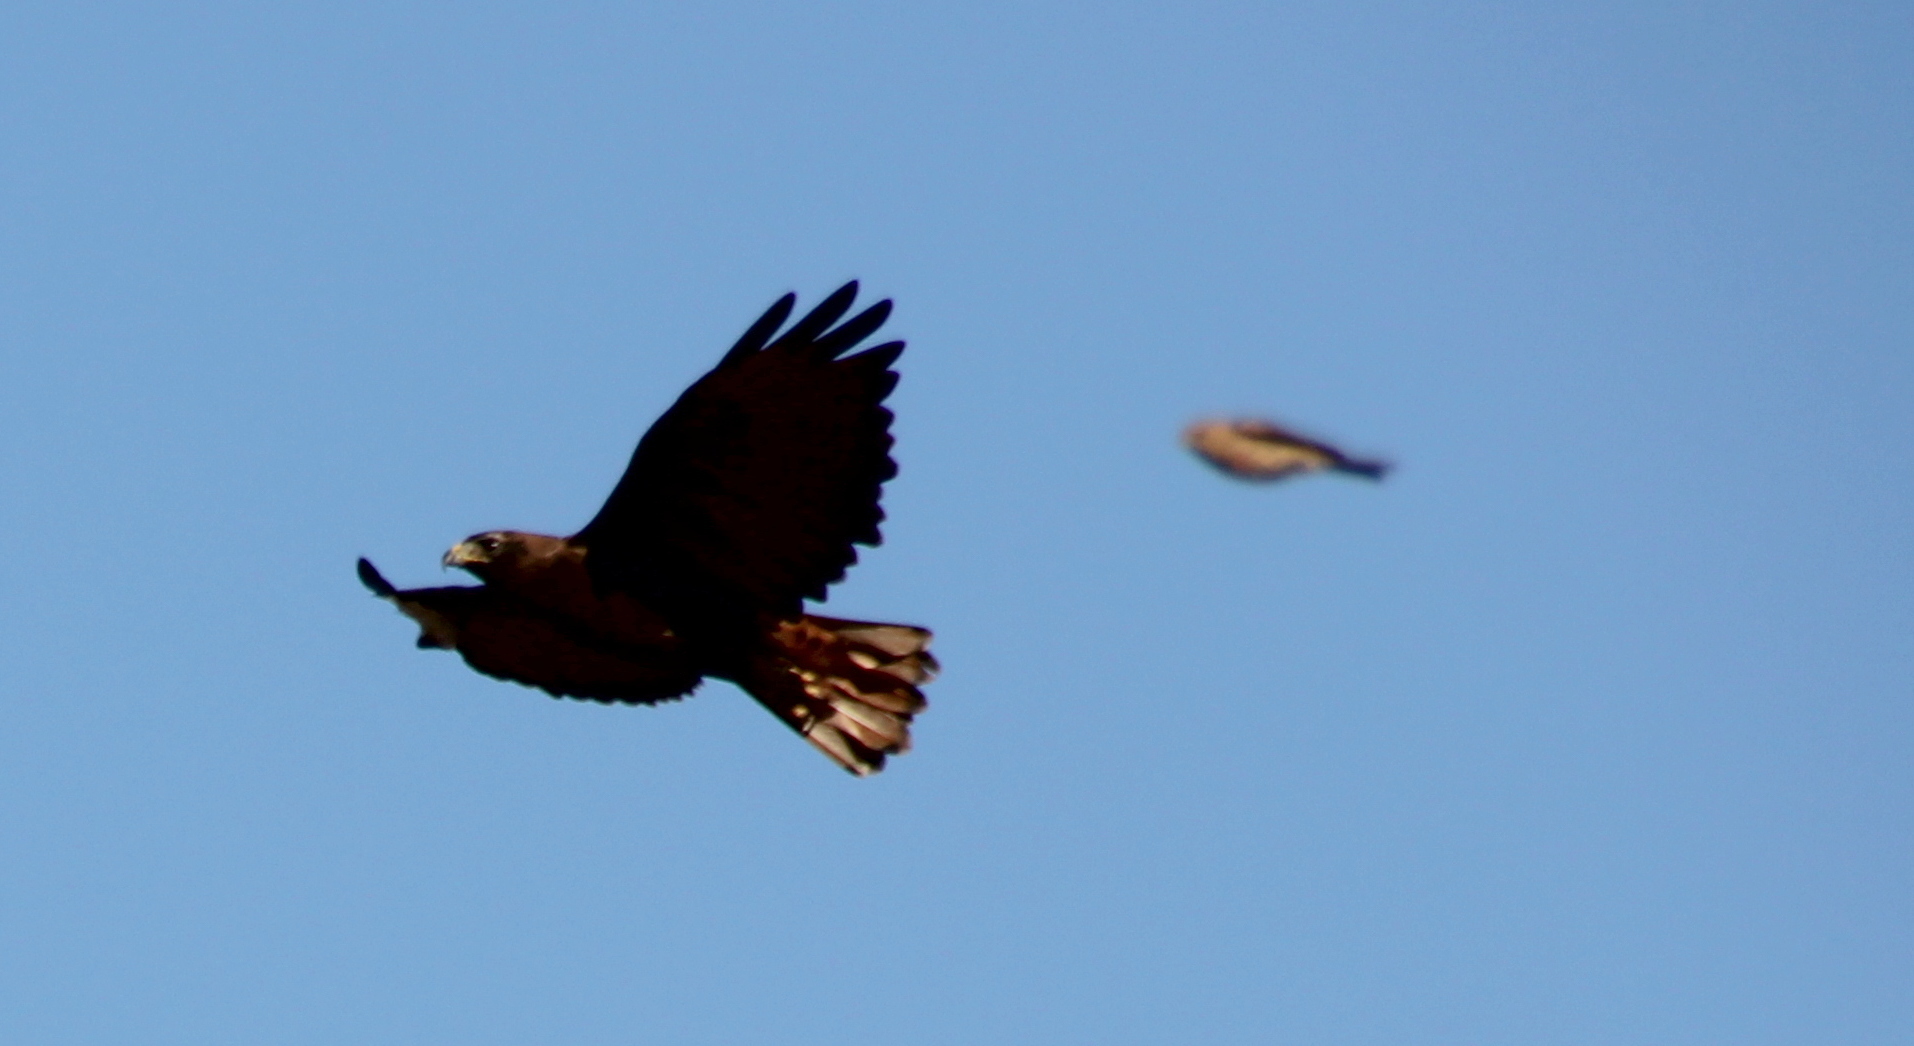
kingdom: Animalia
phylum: Chordata
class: Aves
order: Accipitriformes
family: Accipitridae
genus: Buteo
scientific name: Buteo jamaicensis
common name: Red-tailed hawk
